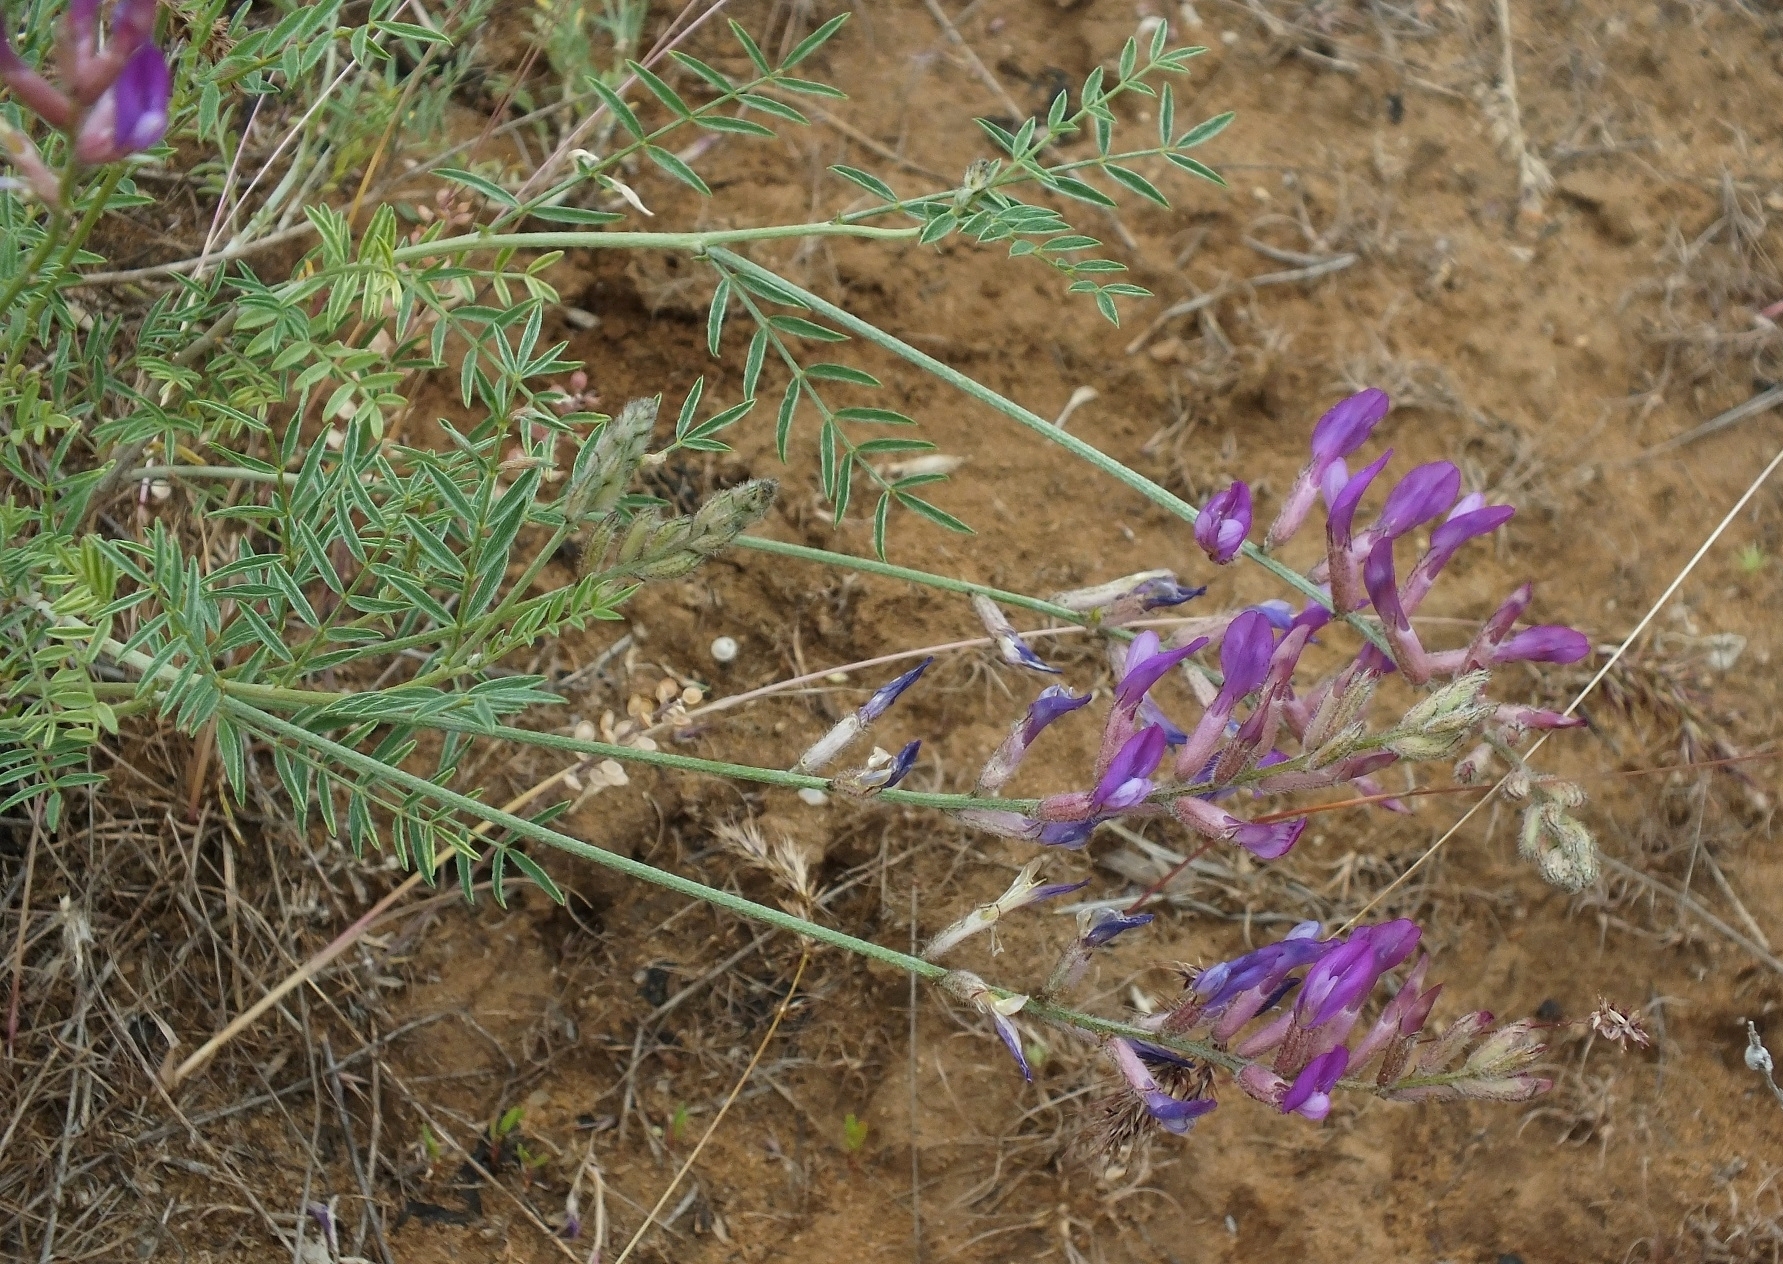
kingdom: Plantae
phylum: Tracheophyta
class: Magnoliopsida
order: Fabales
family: Fabaceae
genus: Astragalus
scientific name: Astragalus varius
